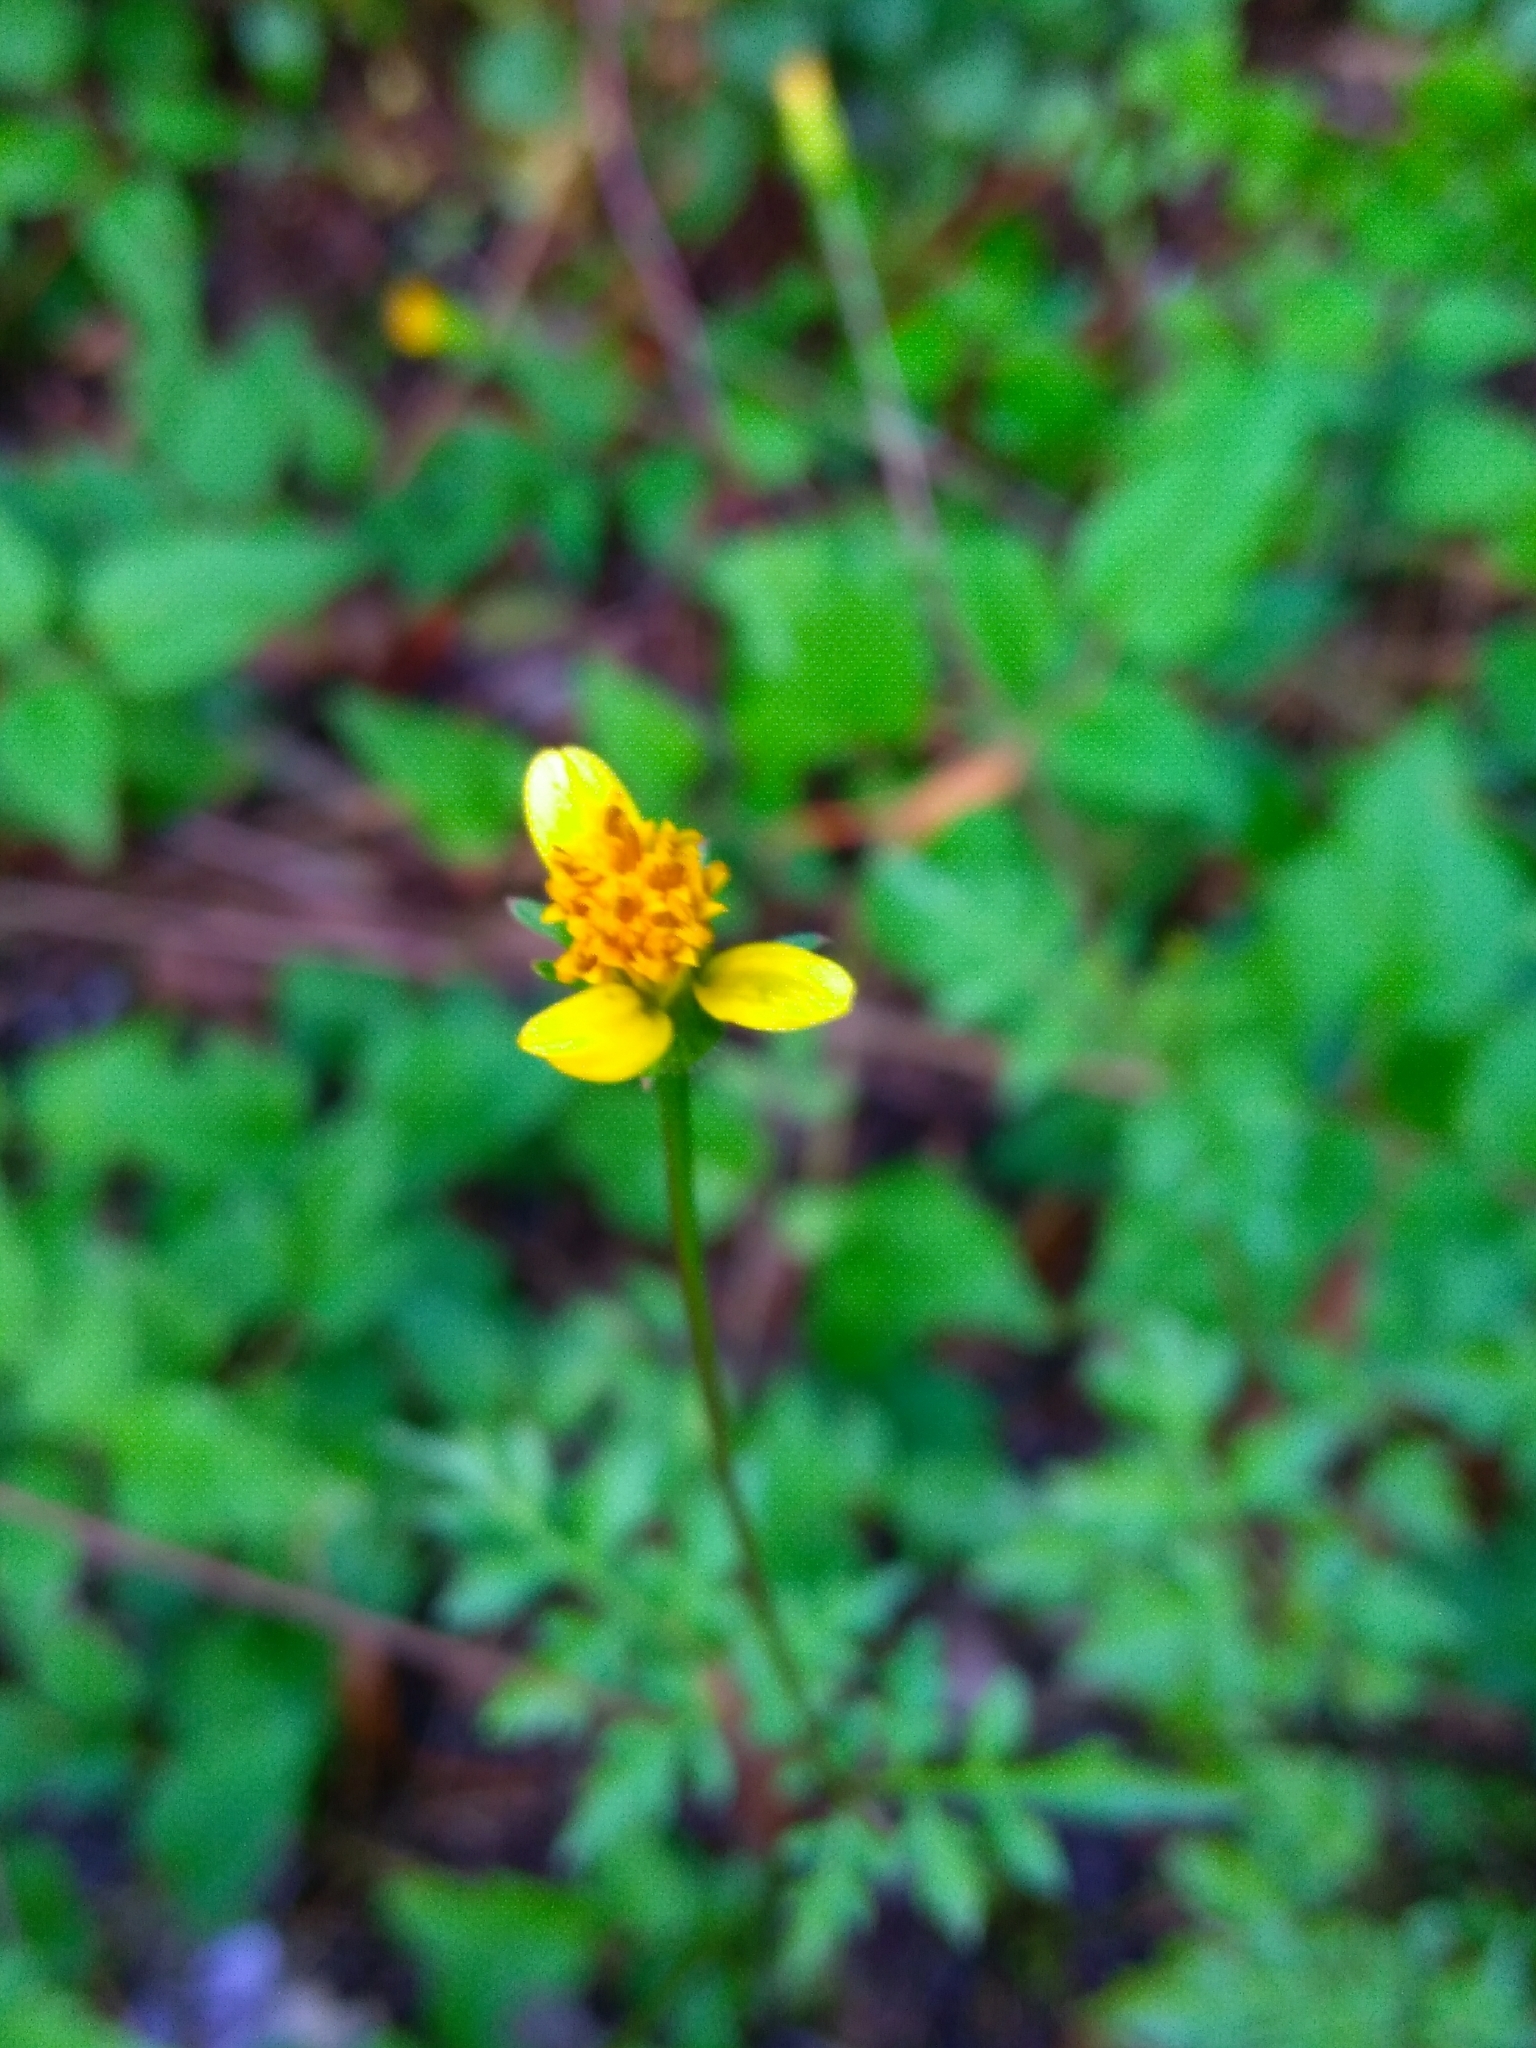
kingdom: Plantae
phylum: Tracheophyta
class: Magnoliopsida
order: Asterales
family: Asteraceae
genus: Bidens
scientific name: Bidens bipinnata
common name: Spanish-needles
